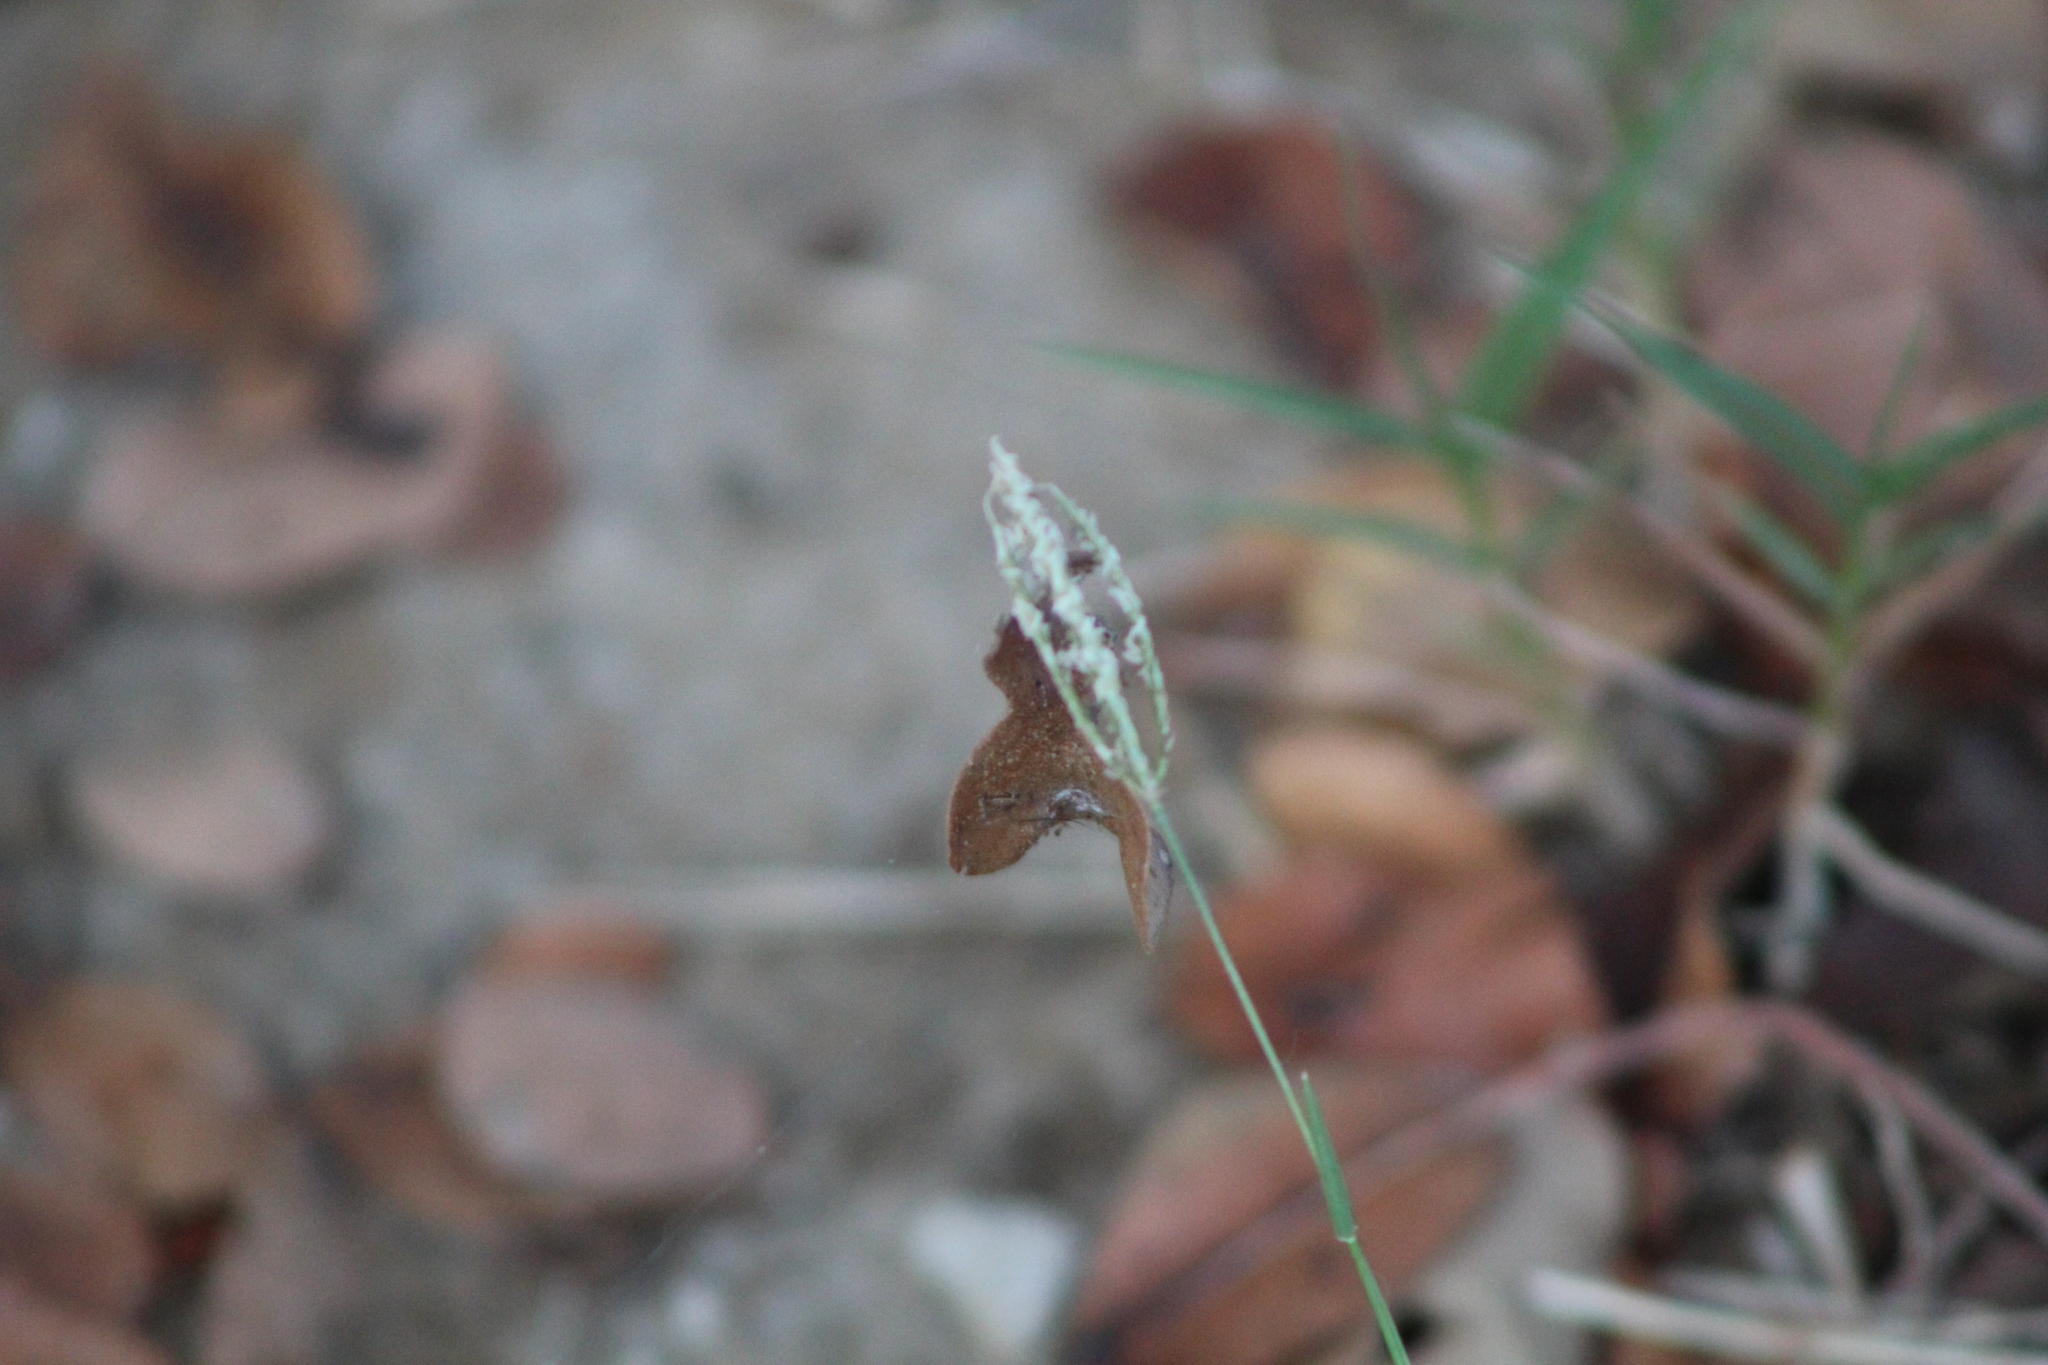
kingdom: Plantae
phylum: Tracheophyta
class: Liliopsida
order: Poales
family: Poaceae
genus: Cynodon
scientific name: Cynodon dactylon
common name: Bermuda grass
